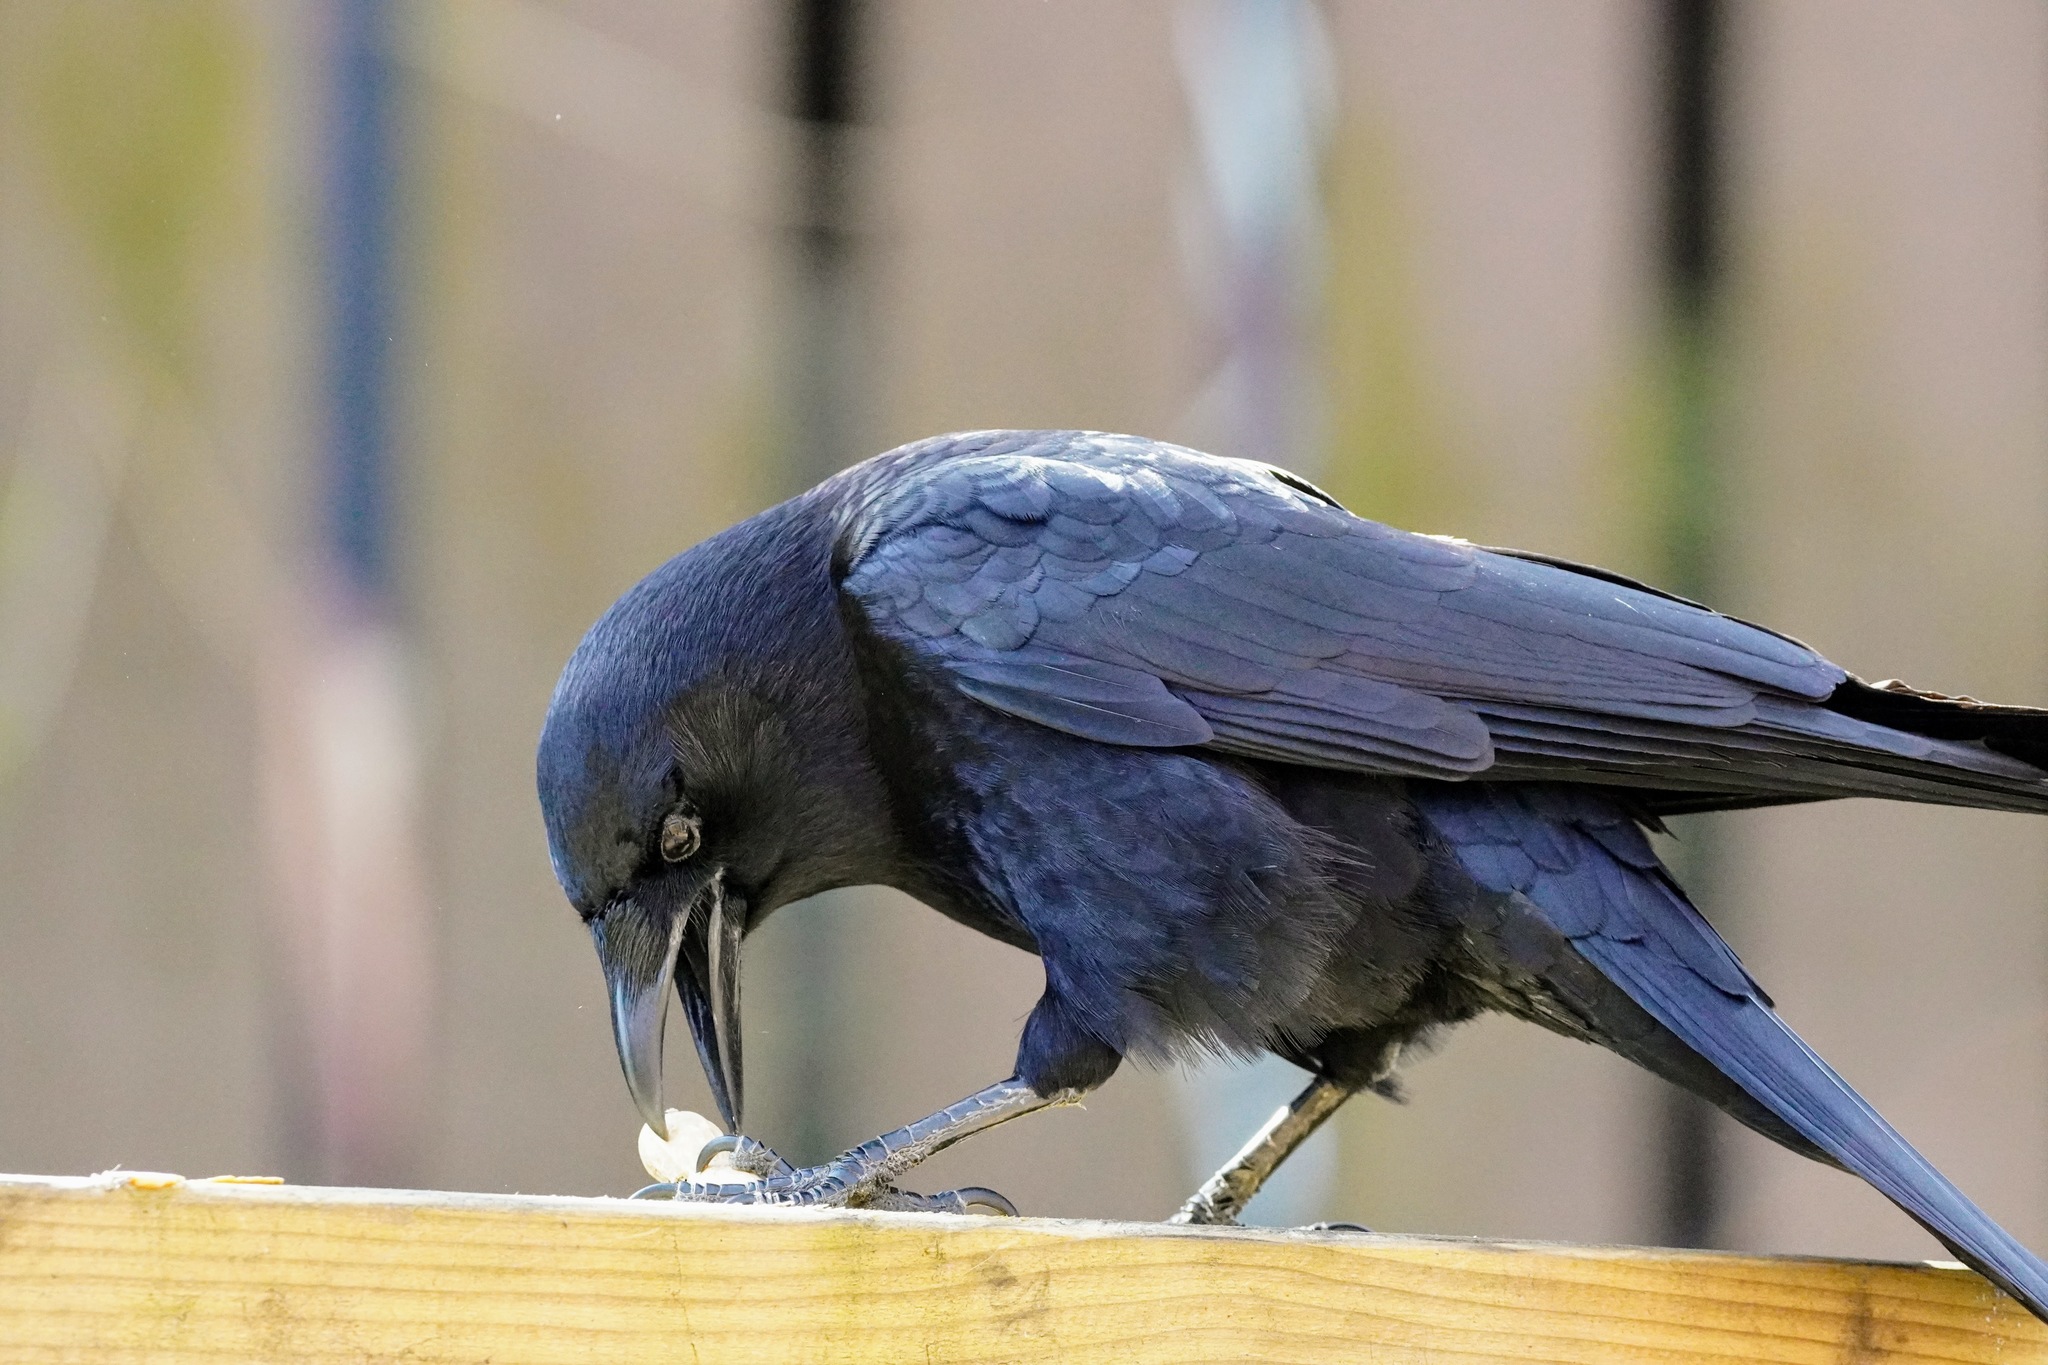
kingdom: Animalia
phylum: Chordata
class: Aves
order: Passeriformes
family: Corvidae
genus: Corvus
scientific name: Corvus brachyrhynchos
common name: American crow
